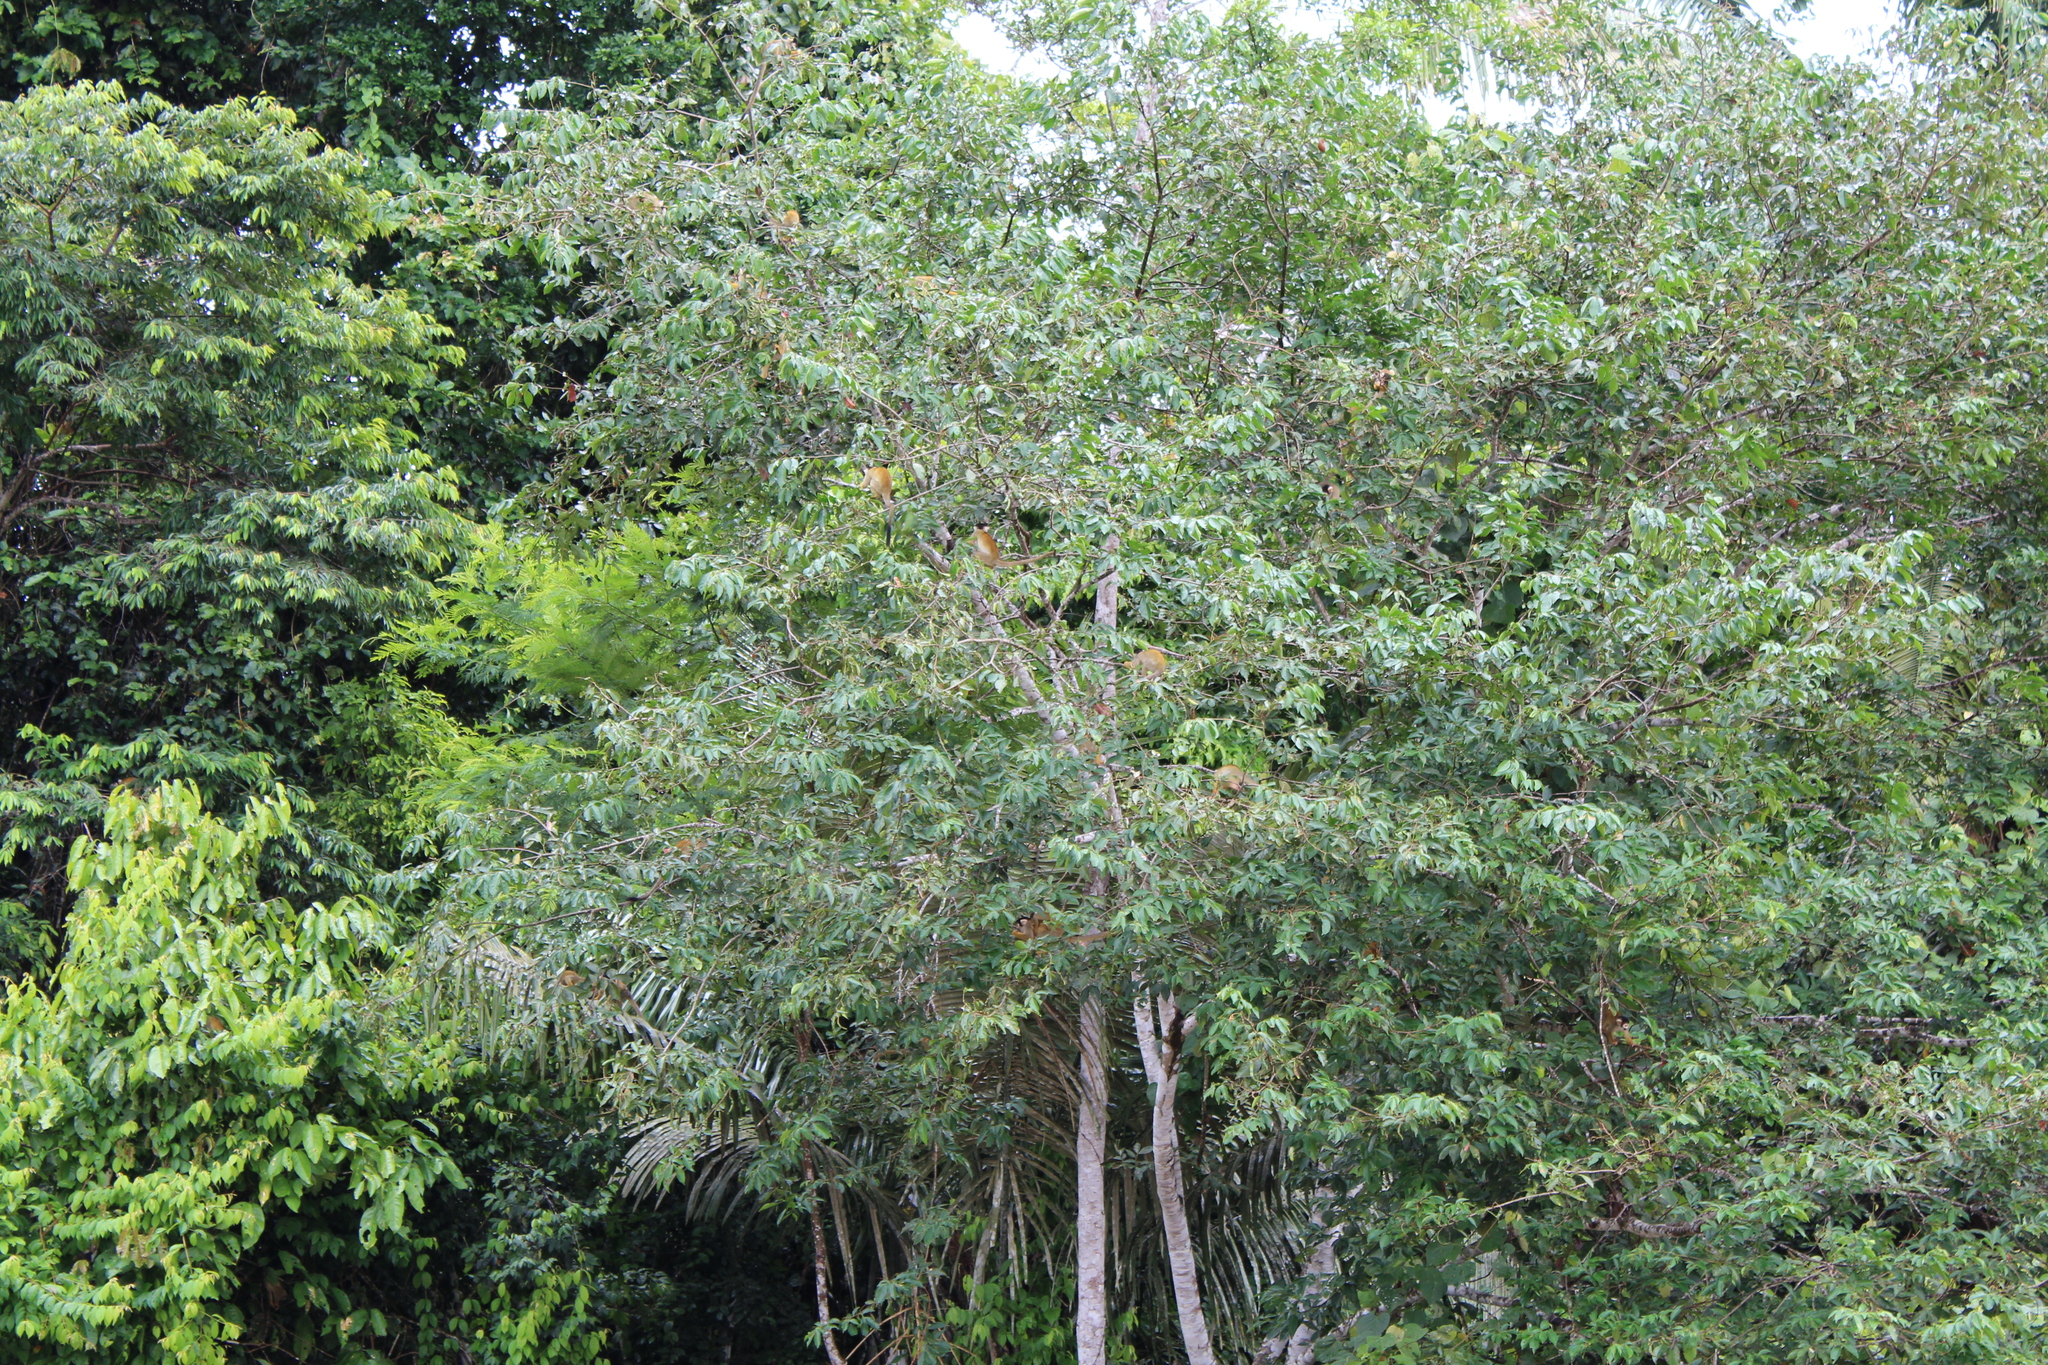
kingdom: Animalia
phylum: Chordata
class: Mammalia
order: Primates
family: Cebidae
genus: Saimiri
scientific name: Saimiri boliviensis
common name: Black-capped squirrel monkey
